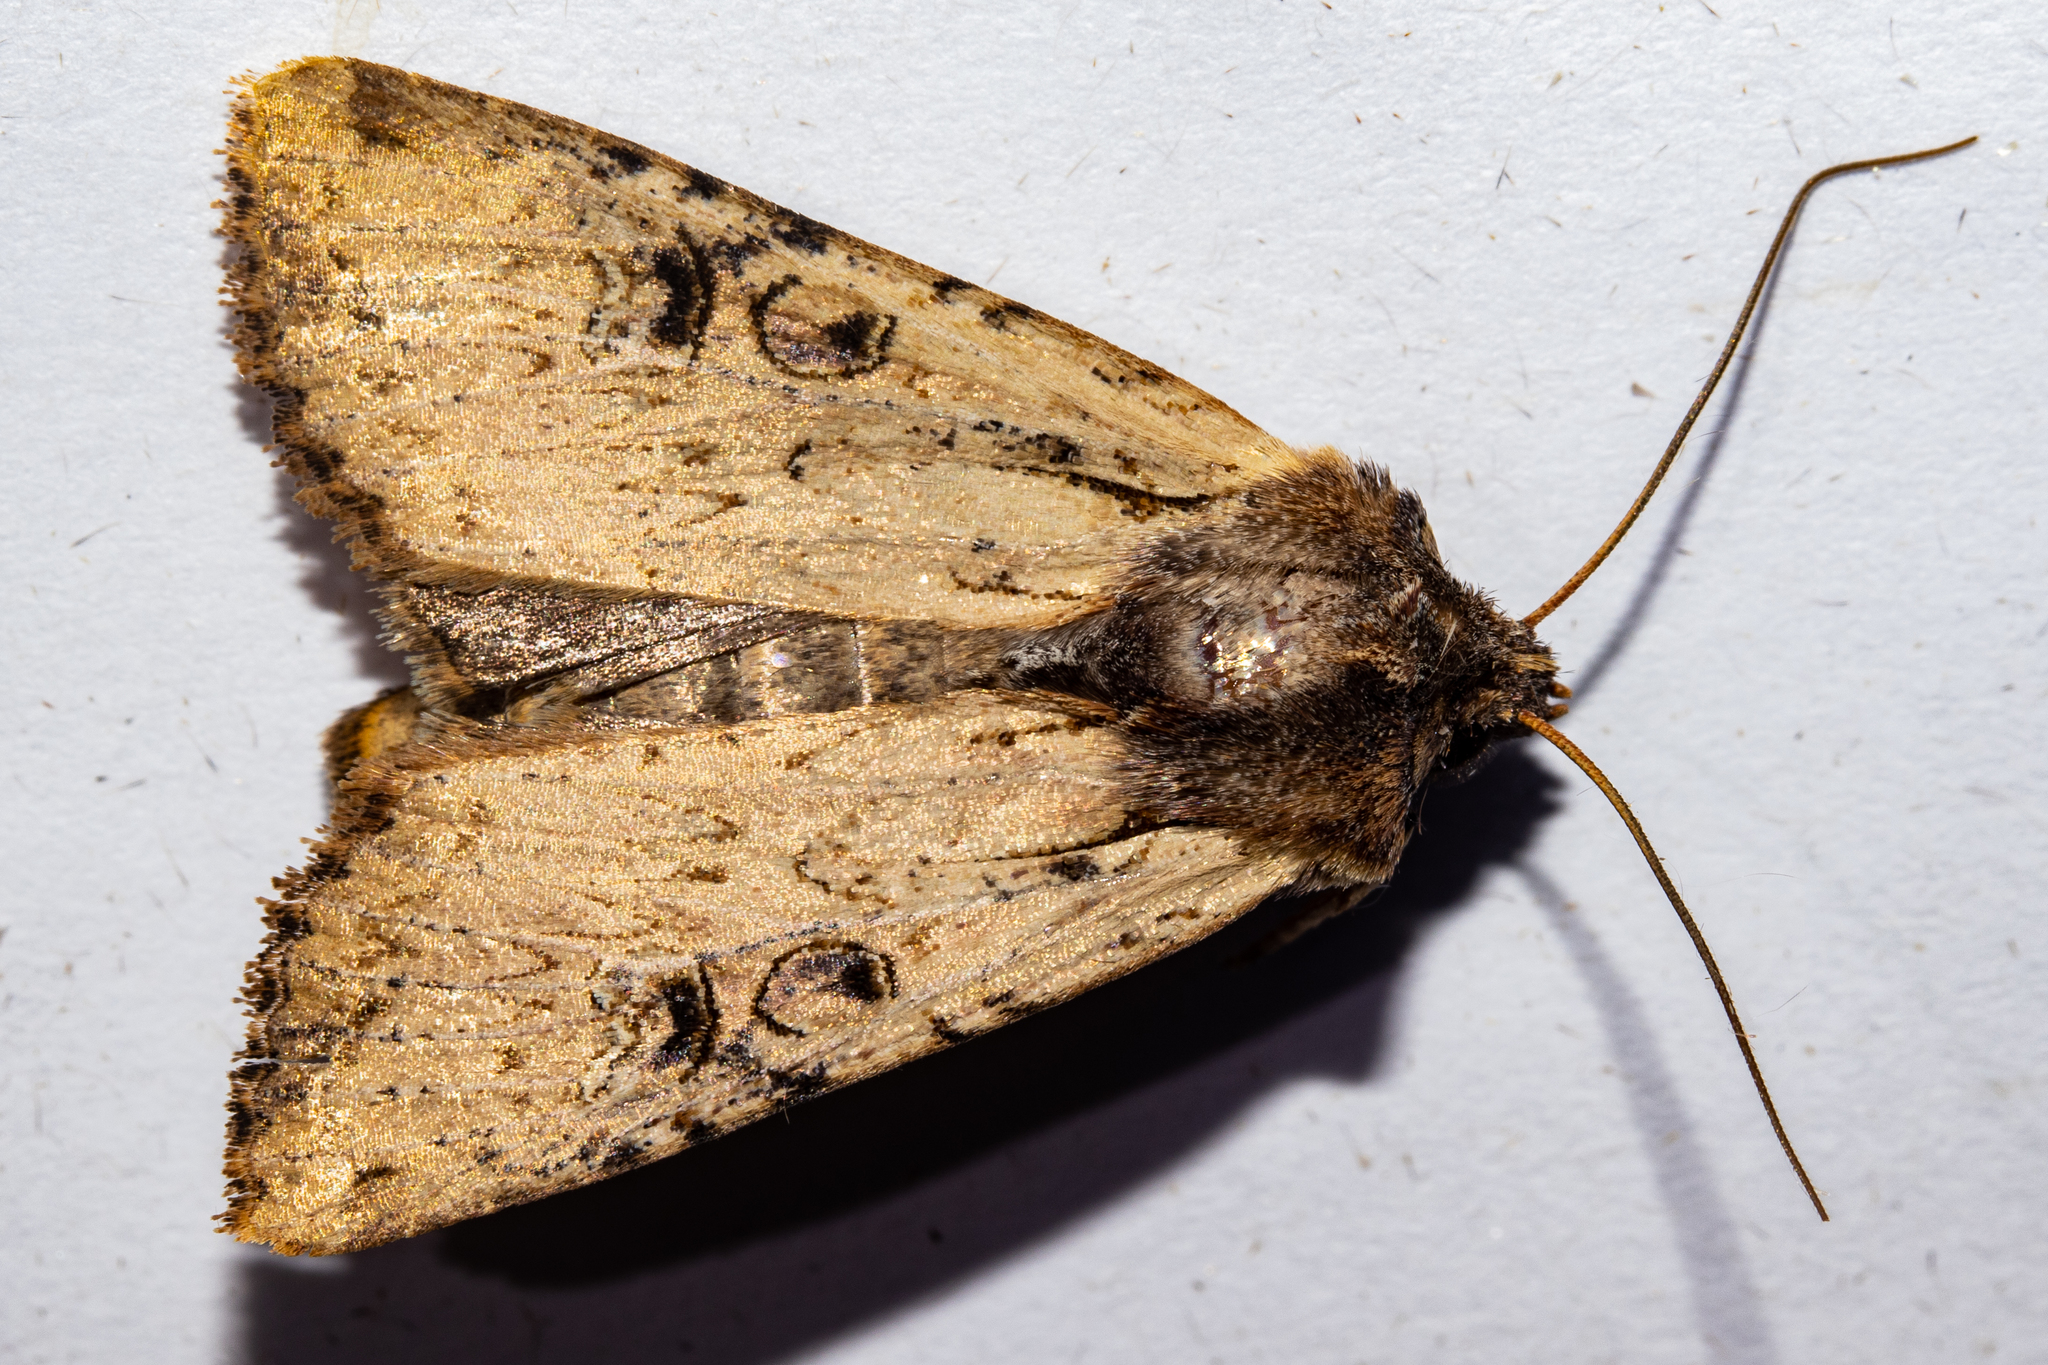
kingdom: Animalia
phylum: Arthropoda
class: Insecta
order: Lepidoptera
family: Noctuidae
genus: Ichneutica
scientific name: Ichneutica omoplaca
